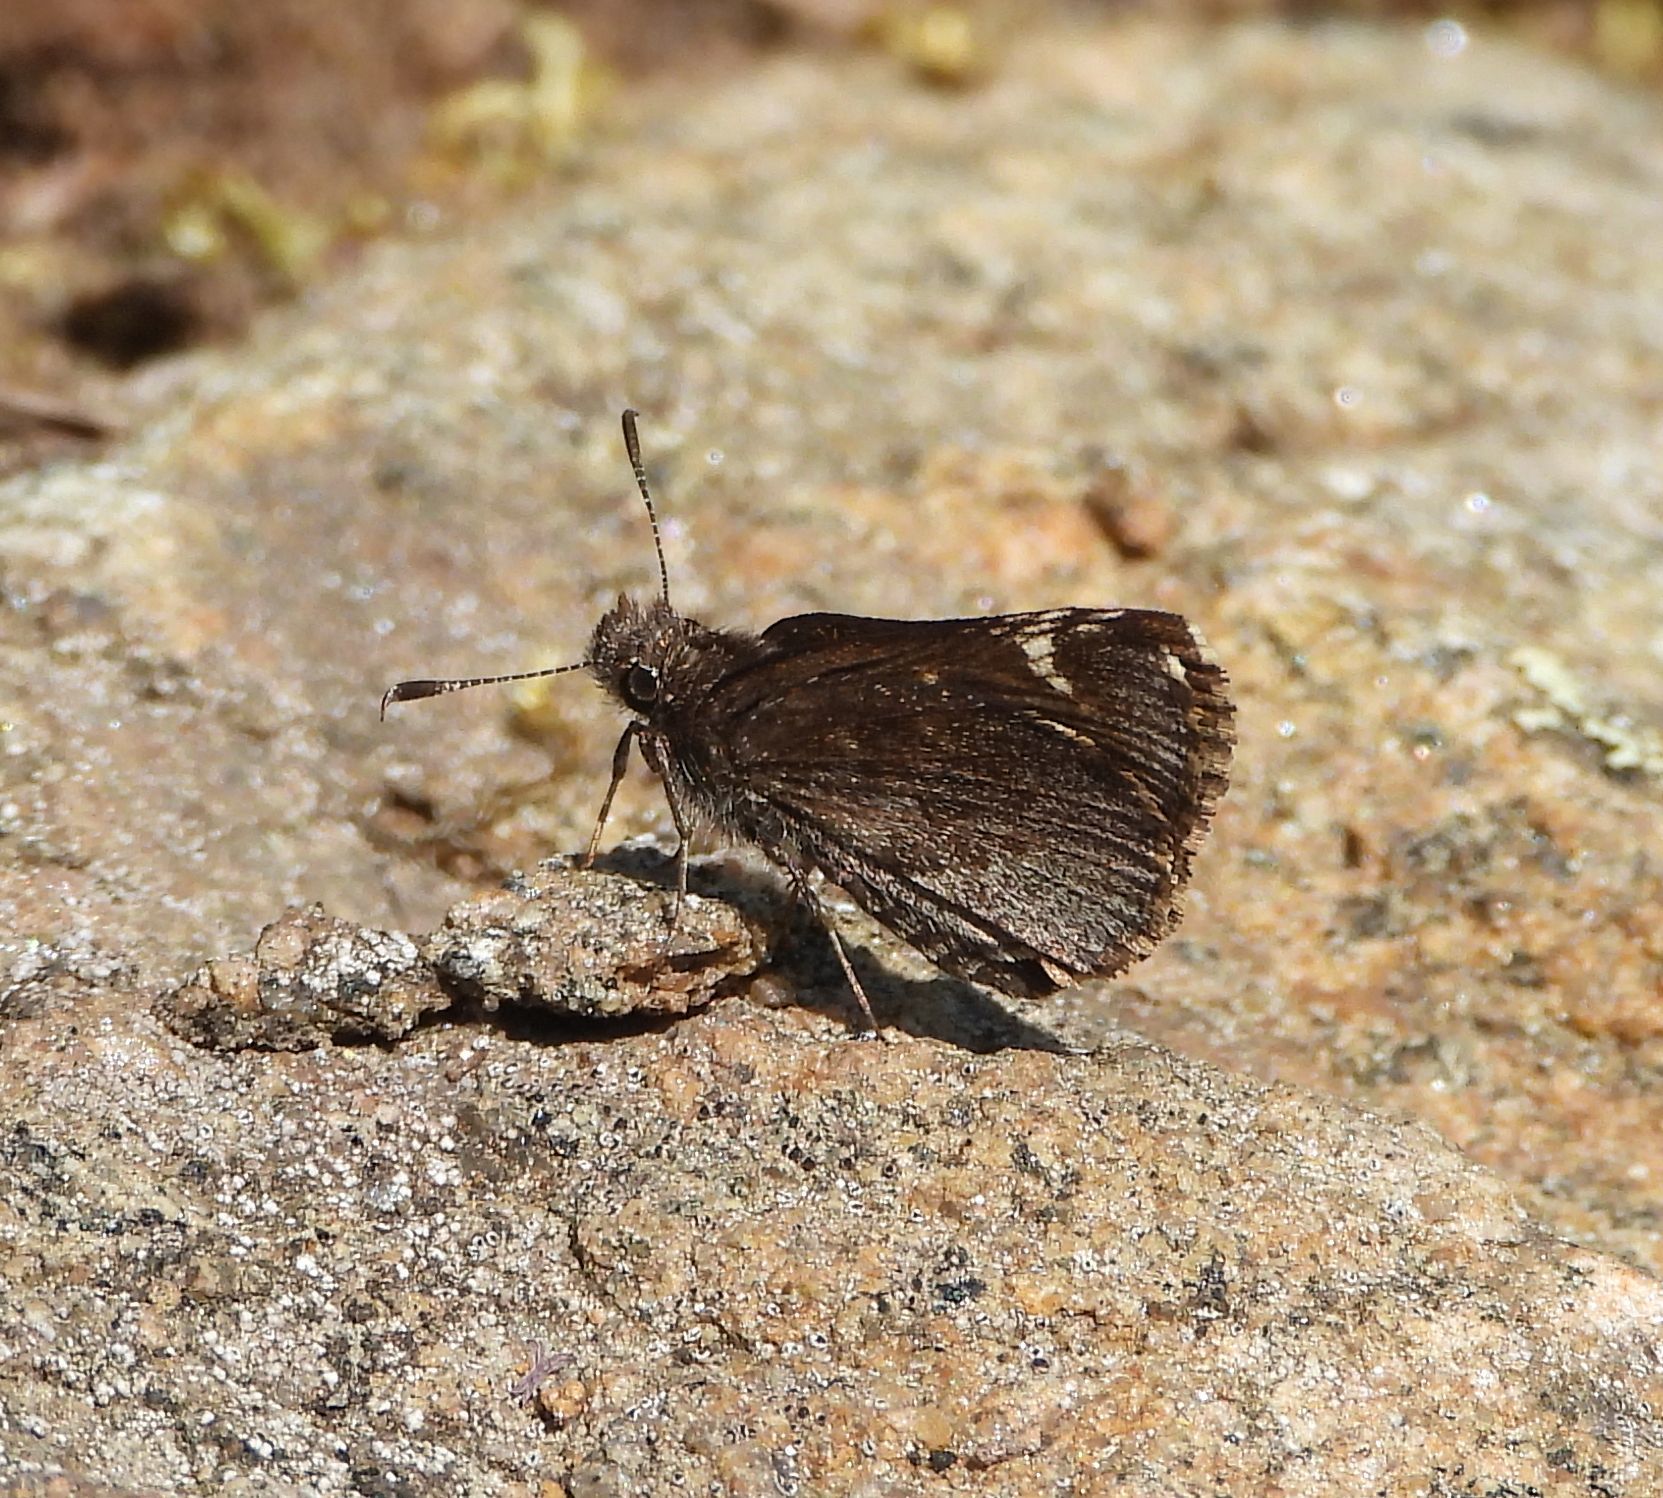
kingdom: Animalia
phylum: Arthropoda
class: Insecta
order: Lepidoptera
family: Hesperiidae
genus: Mastor
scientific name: Mastor vialis
